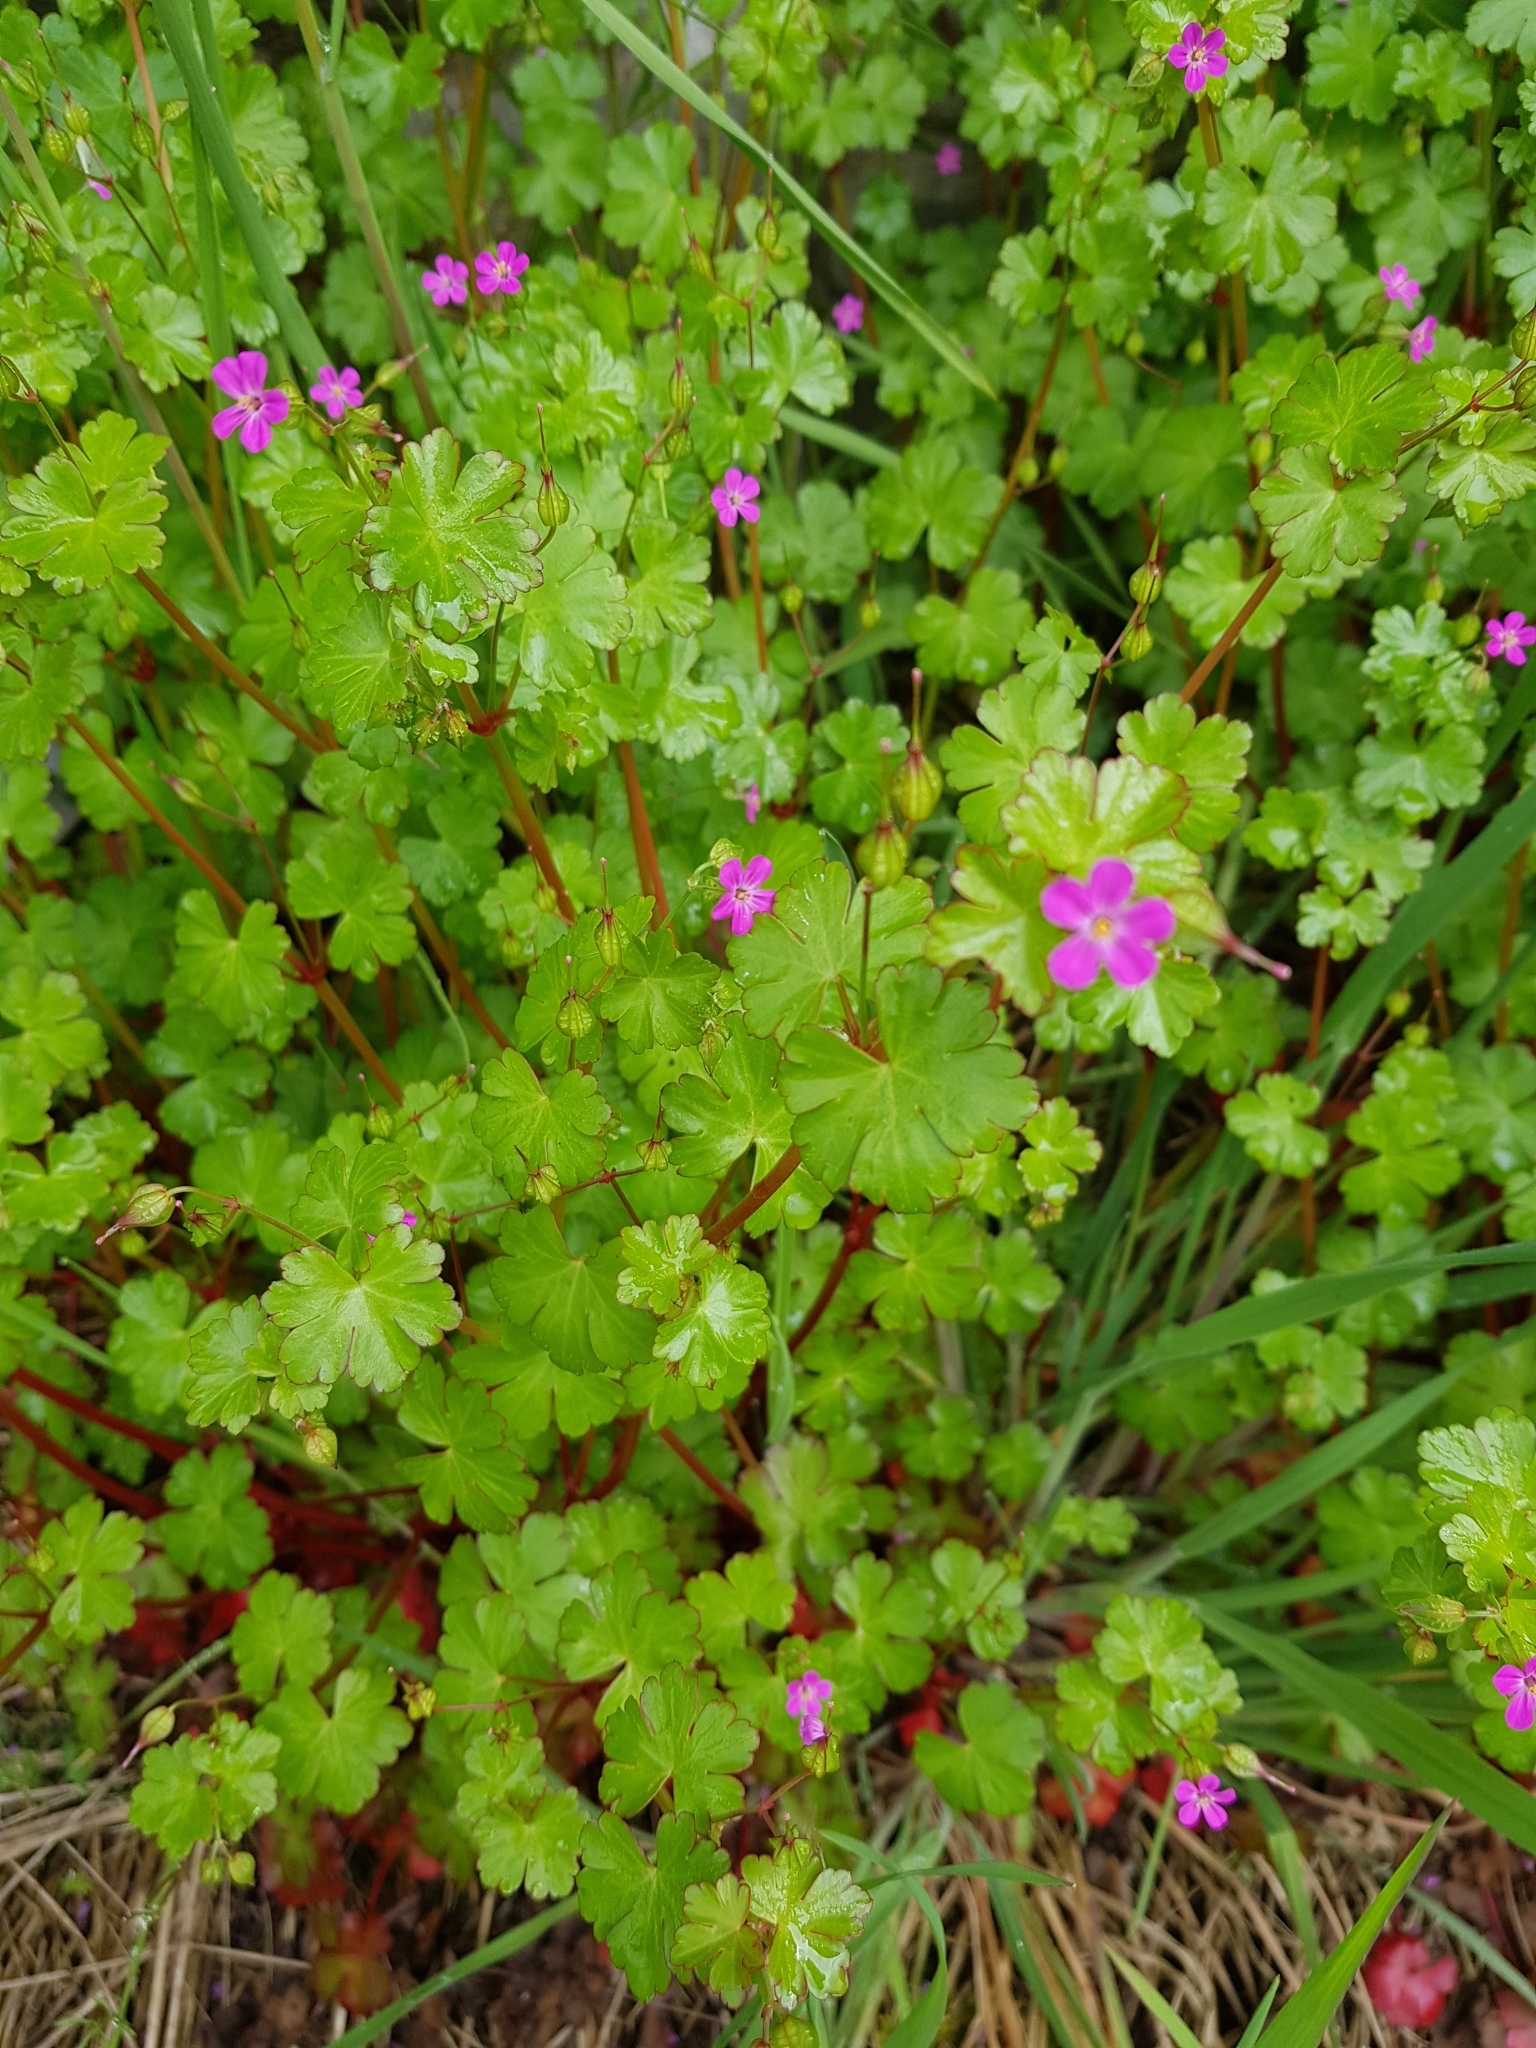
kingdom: Plantae
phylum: Tracheophyta
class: Magnoliopsida
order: Geraniales
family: Geraniaceae
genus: Geranium
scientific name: Geranium lucidum
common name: Shining crane's-bill
